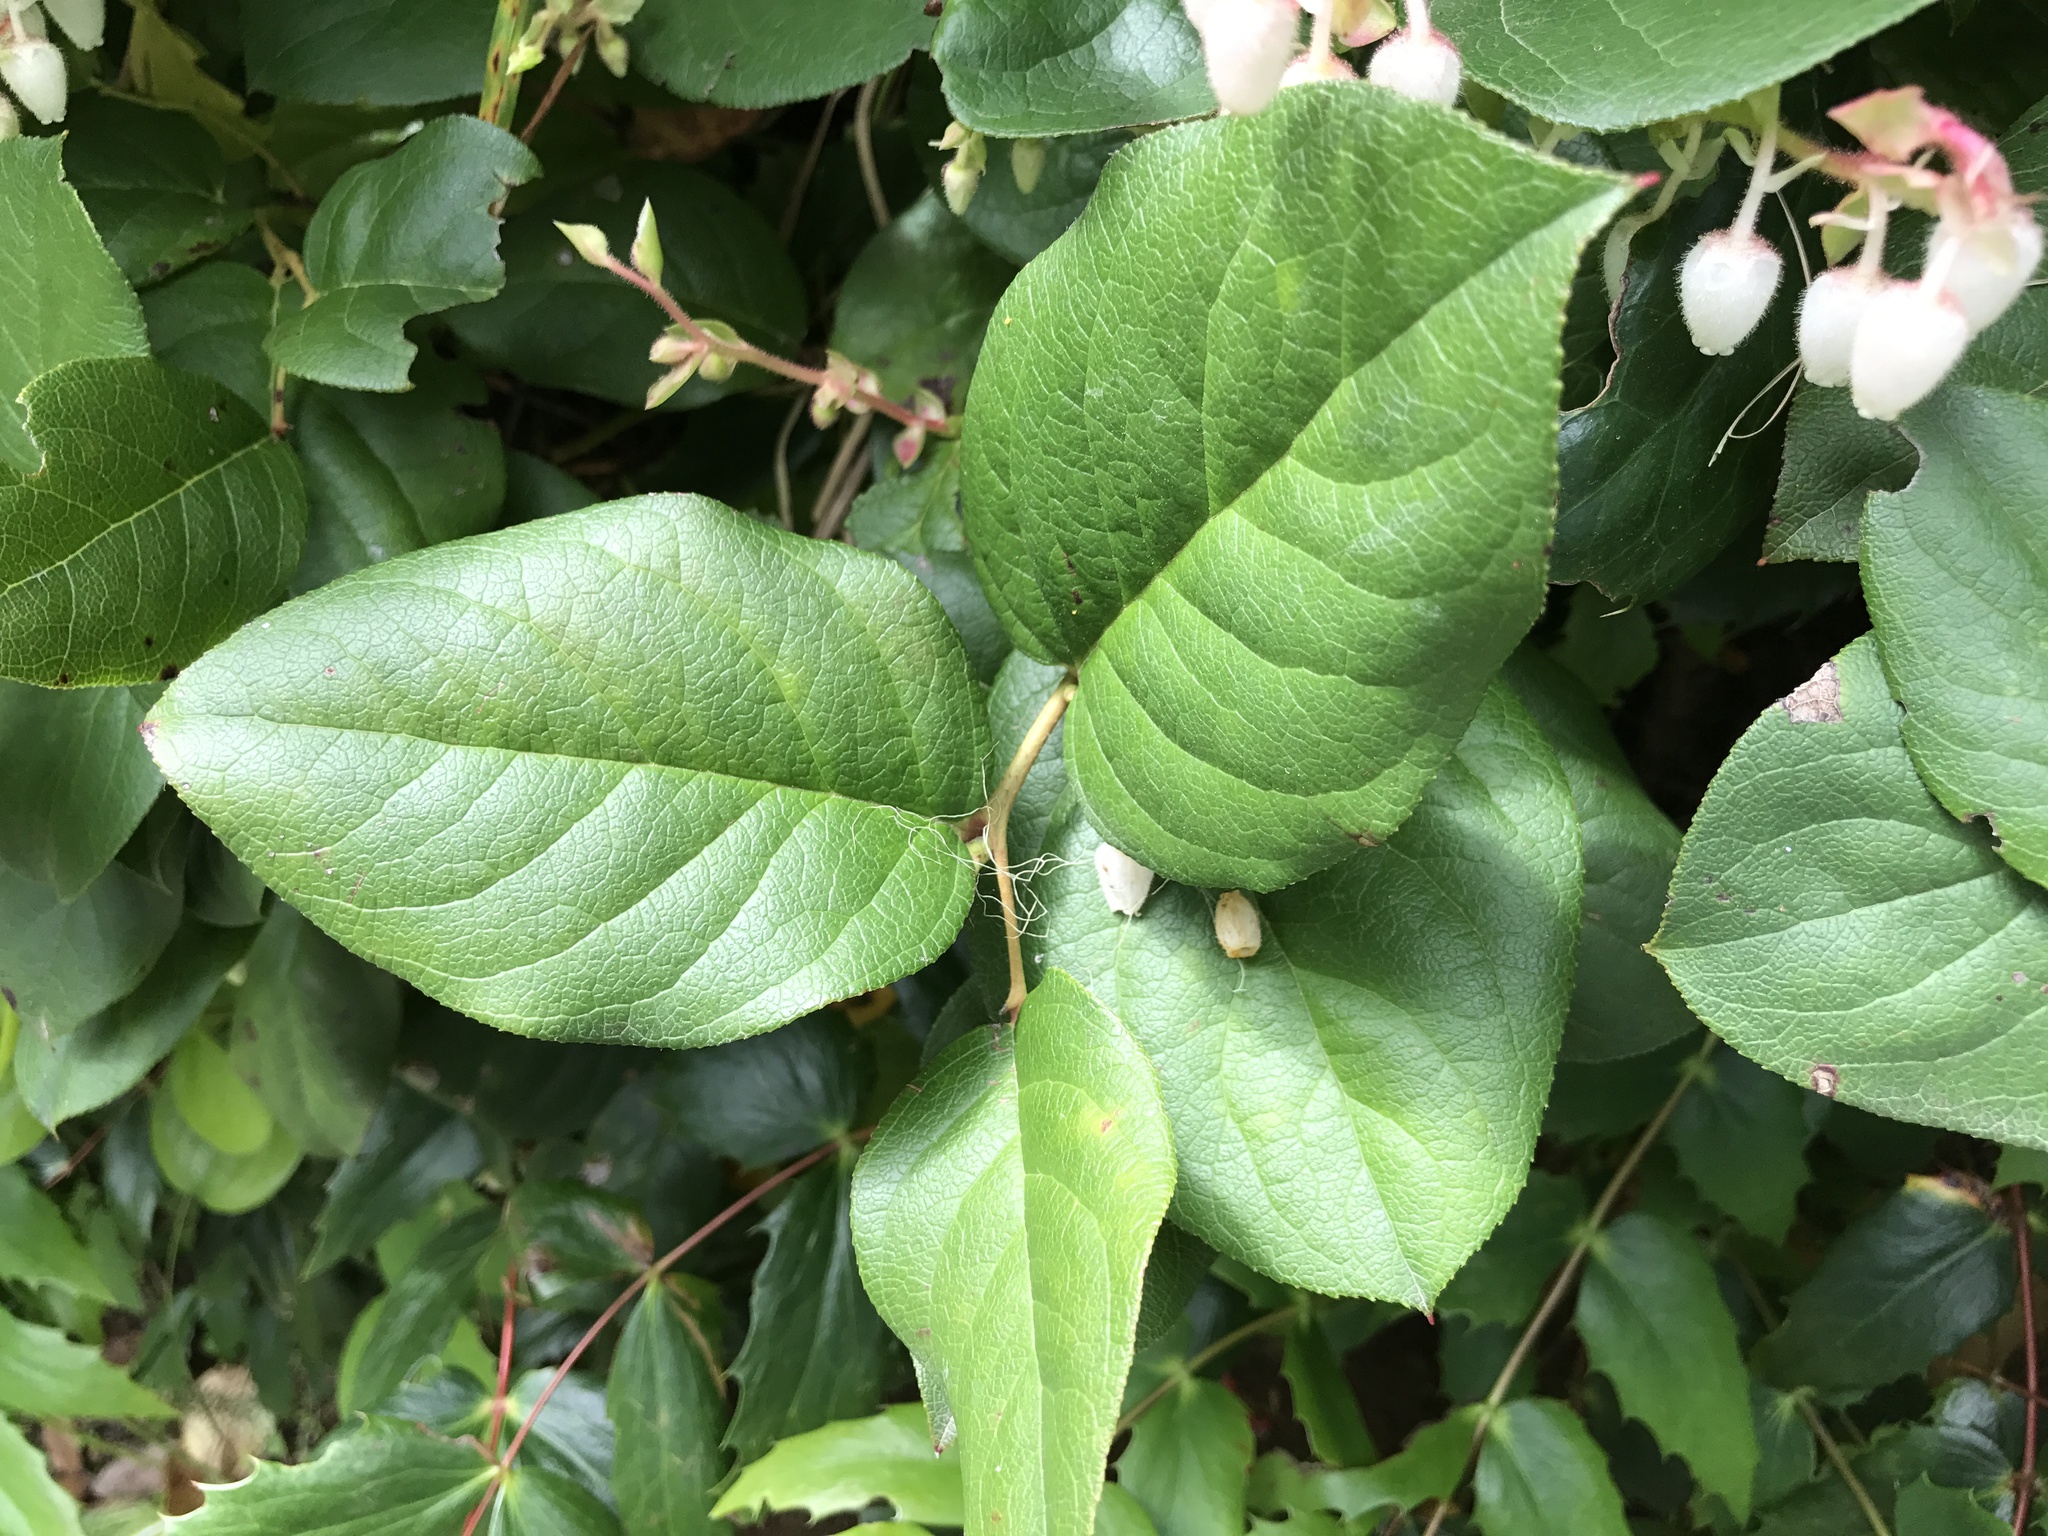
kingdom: Plantae
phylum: Tracheophyta
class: Magnoliopsida
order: Ericales
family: Ericaceae
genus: Gaultheria
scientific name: Gaultheria shallon
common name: Shallon
